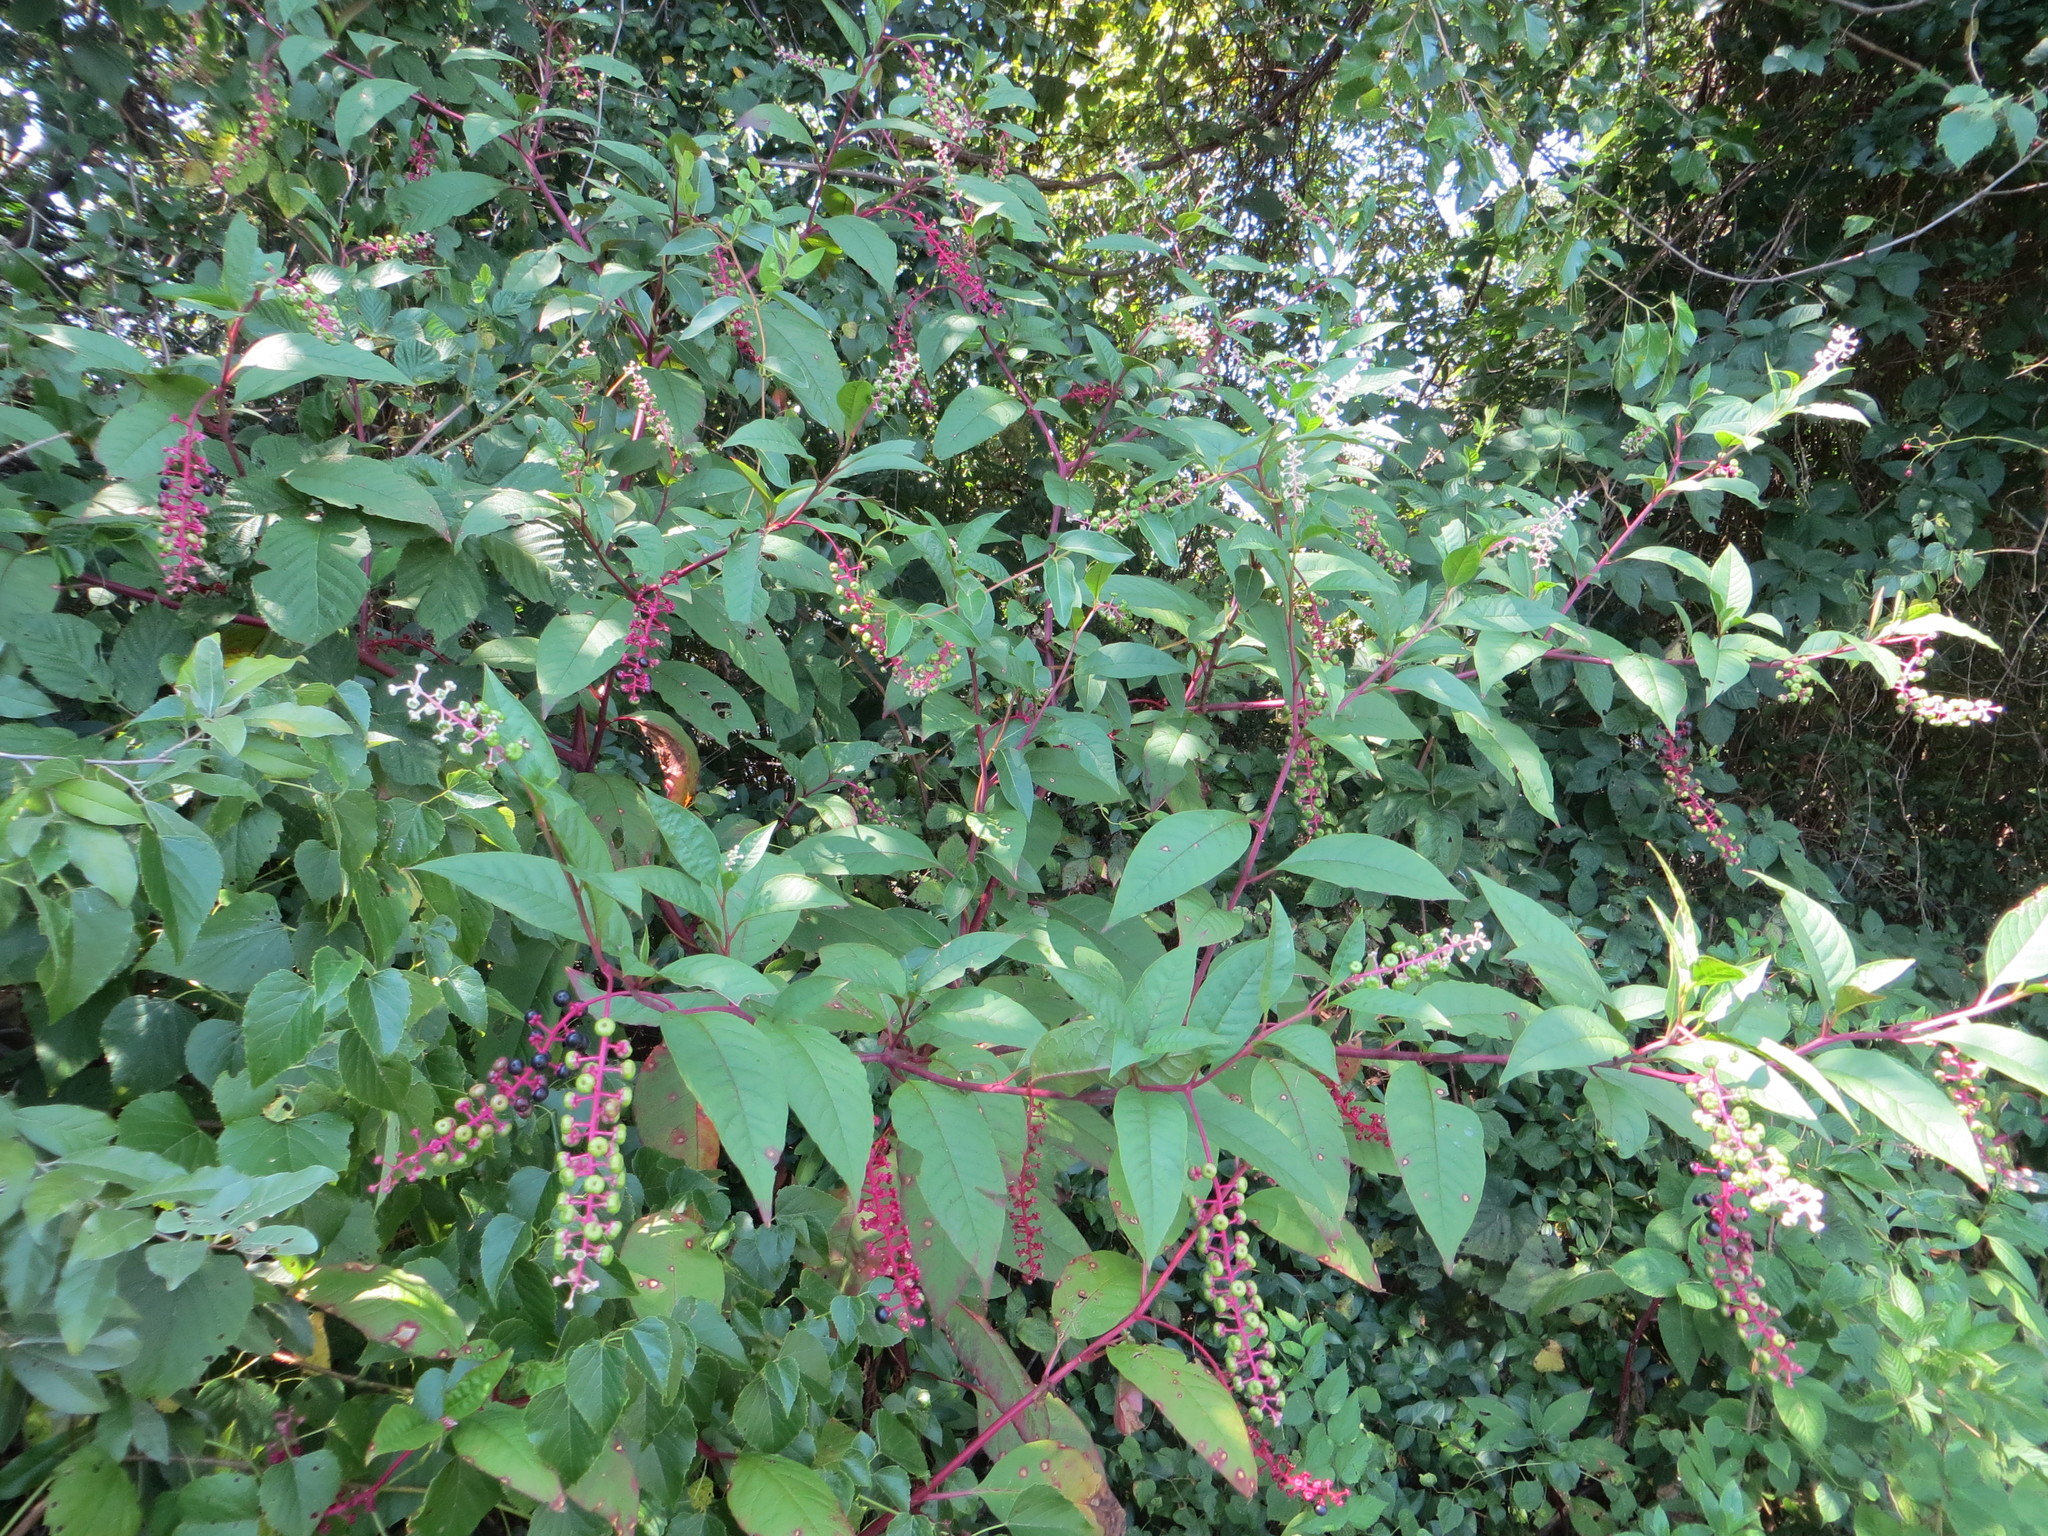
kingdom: Plantae
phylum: Tracheophyta
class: Magnoliopsida
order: Caryophyllales
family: Phytolaccaceae
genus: Phytolacca
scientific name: Phytolacca americana
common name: American pokeweed
